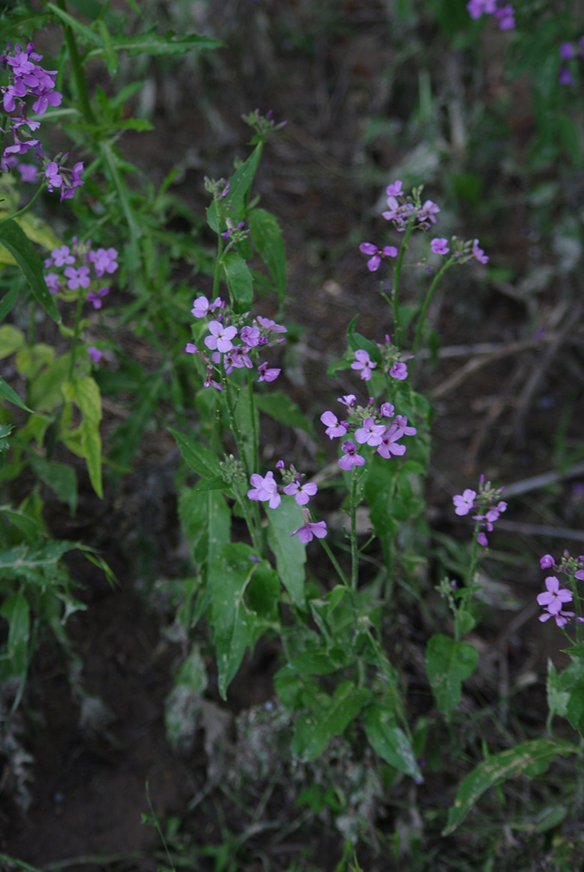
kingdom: Plantae
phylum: Tracheophyta
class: Magnoliopsida
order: Brassicales
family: Brassicaceae
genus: Hesperis
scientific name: Hesperis matronalis
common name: Dame's-violet
